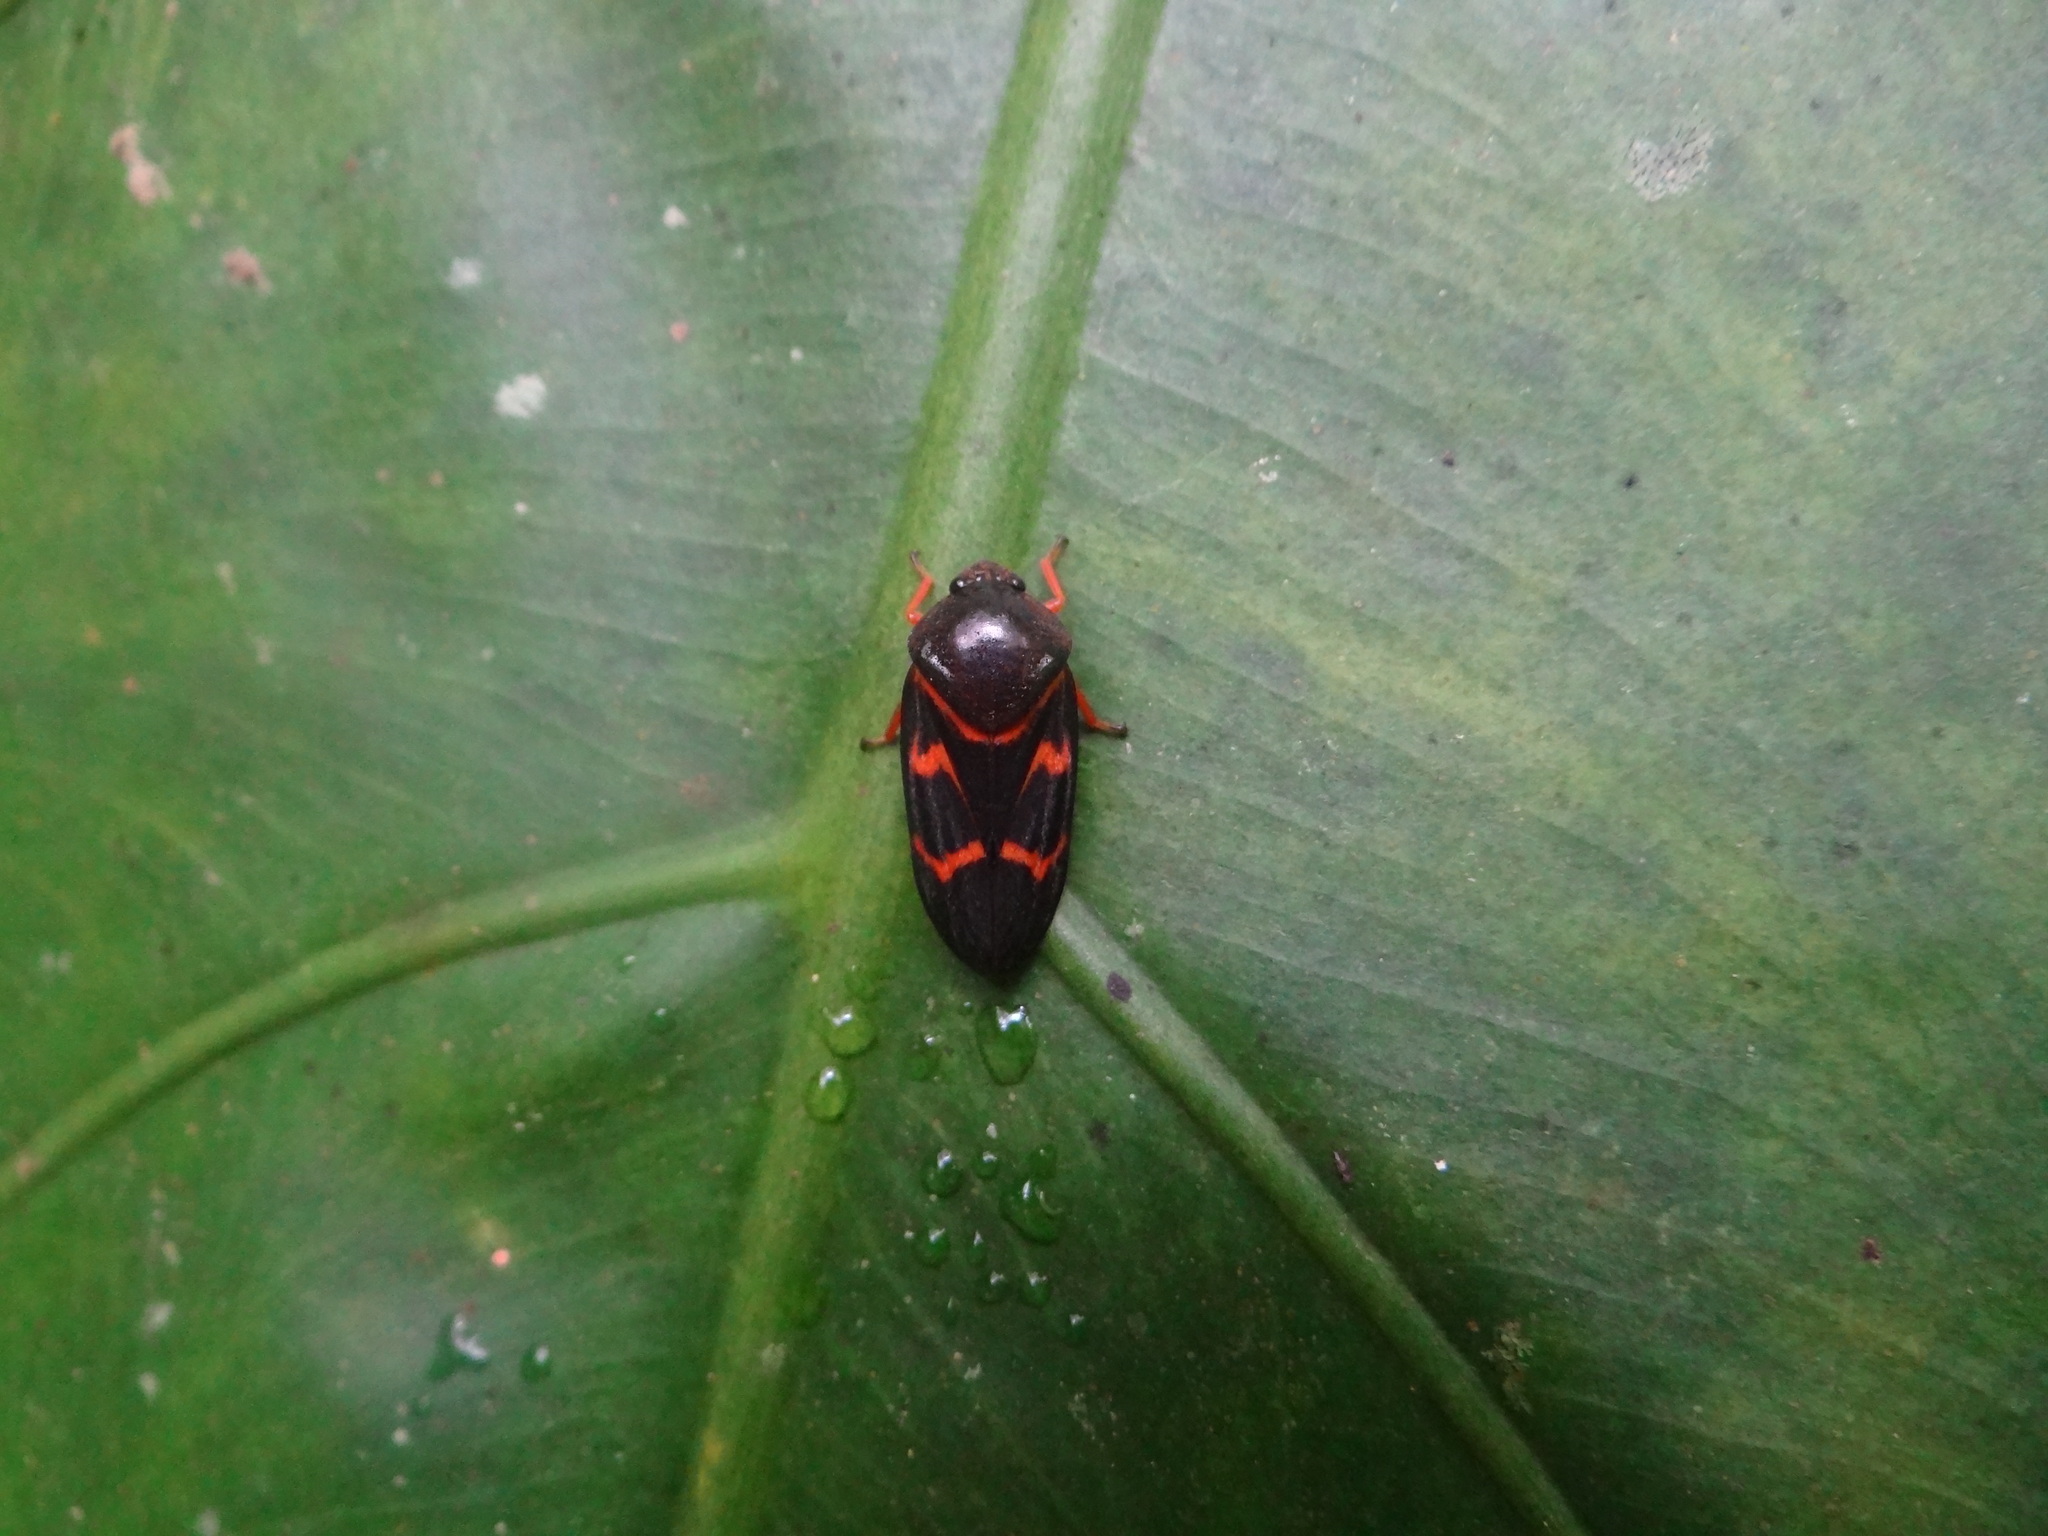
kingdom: Animalia
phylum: Arthropoda
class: Insecta
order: Hemiptera
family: Cercopidae
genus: Okiscarta
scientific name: Okiscarta uchidae
